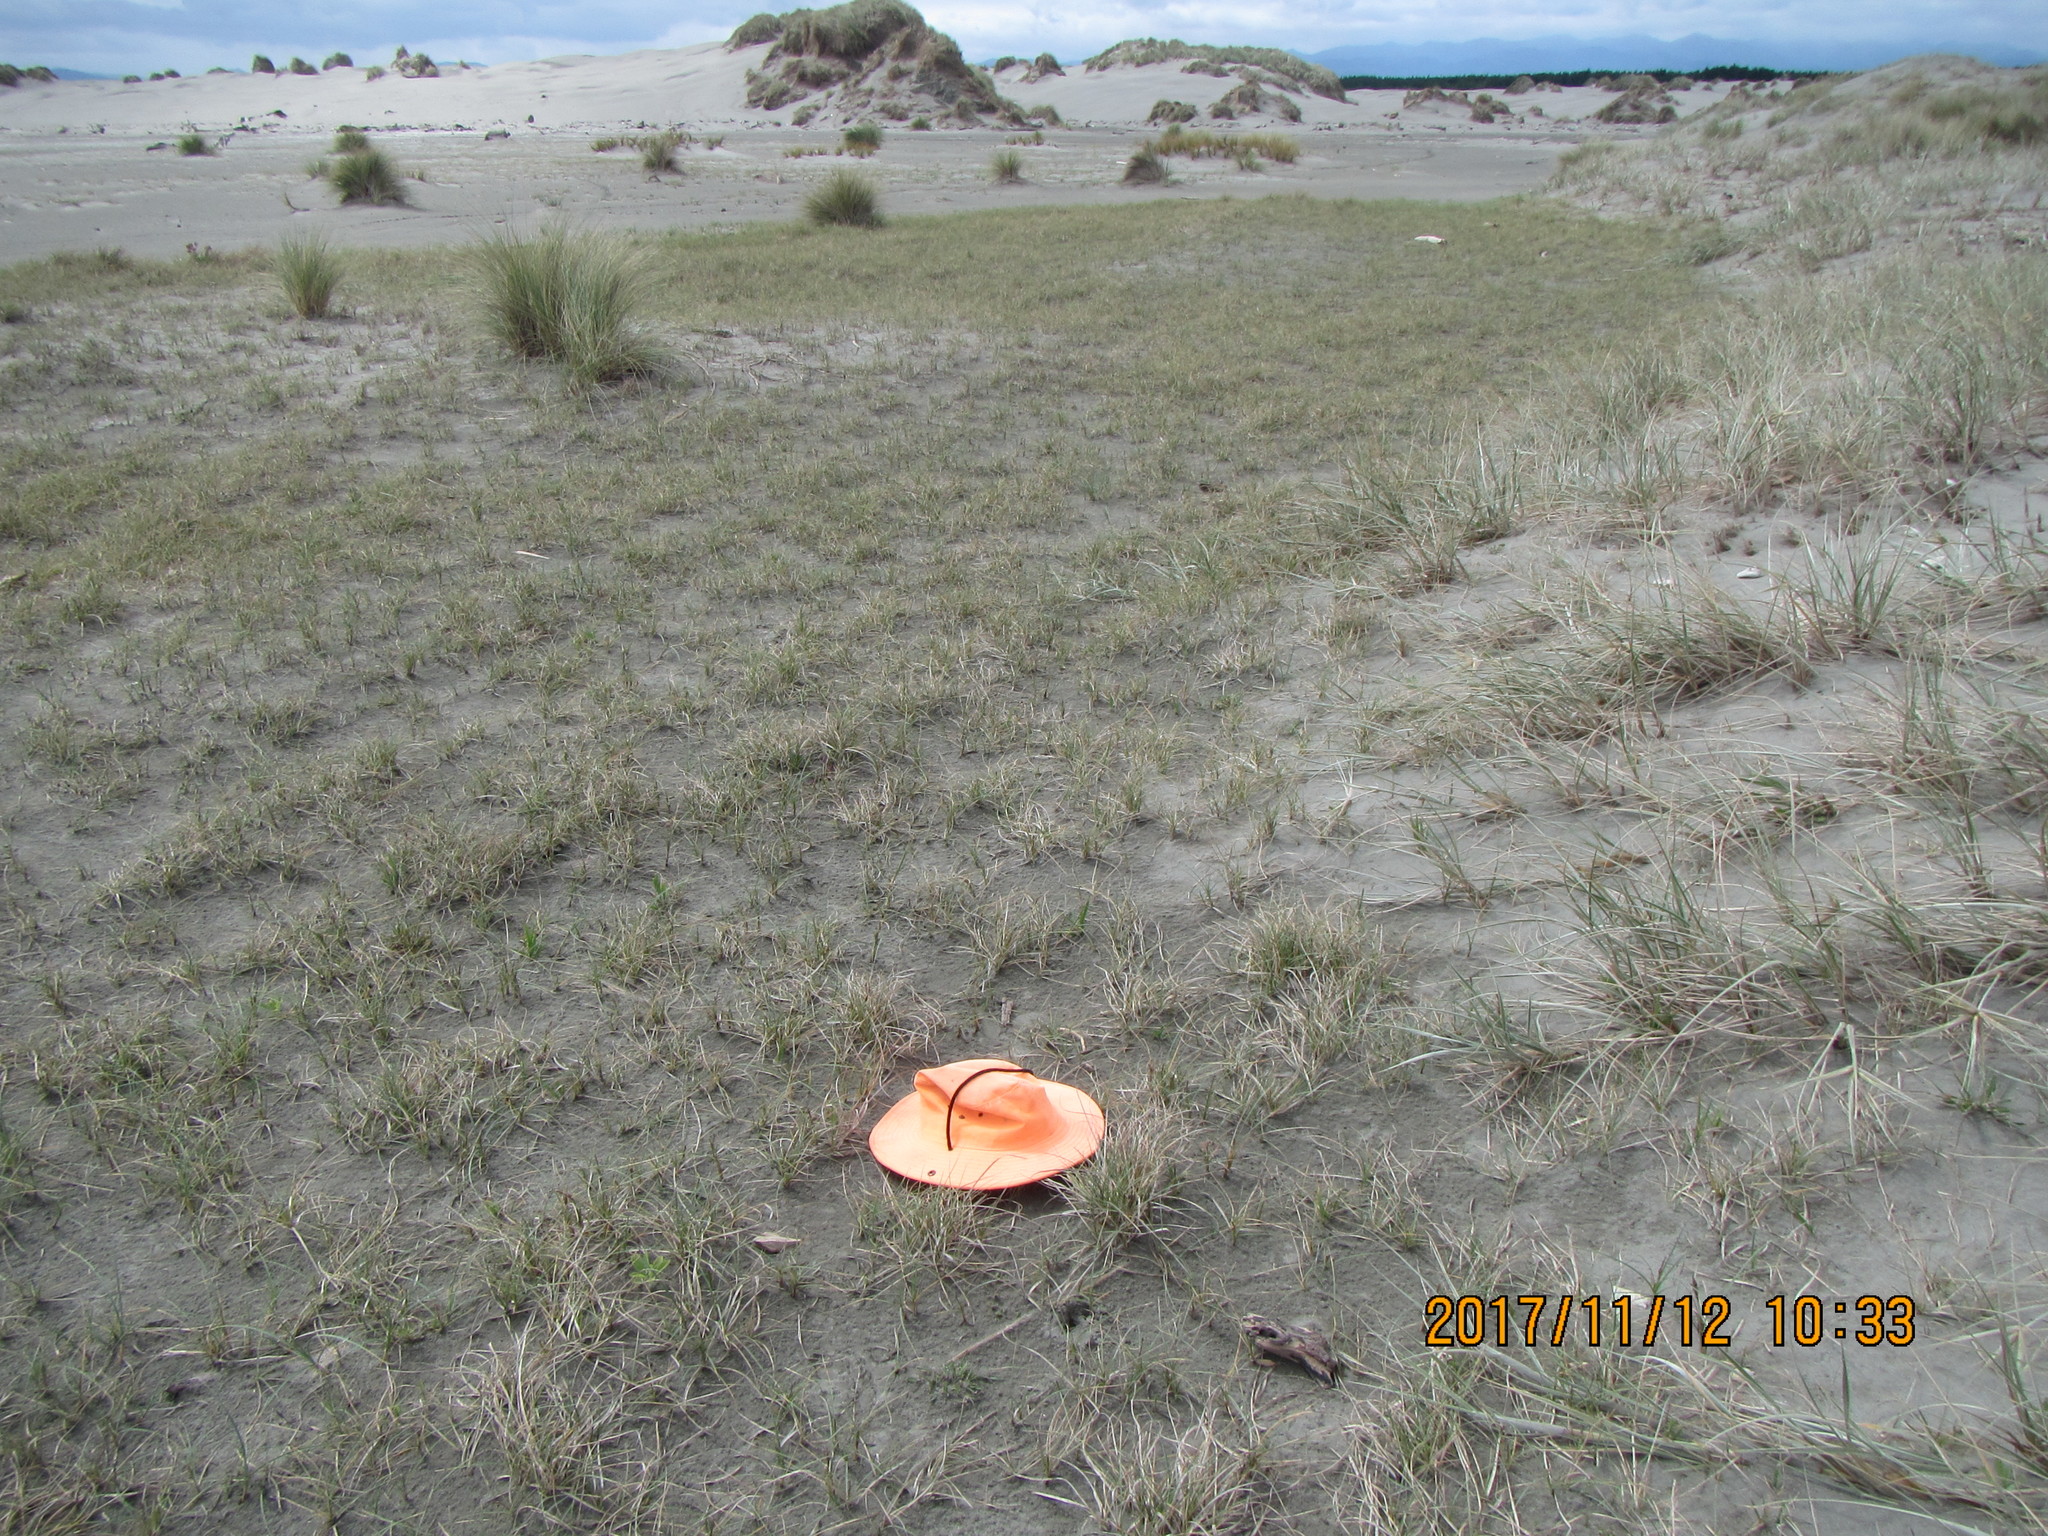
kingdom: Plantae
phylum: Tracheophyta
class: Magnoliopsida
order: Asterales
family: Goodeniaceae
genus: Goodenia
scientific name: Goodenia radicans
